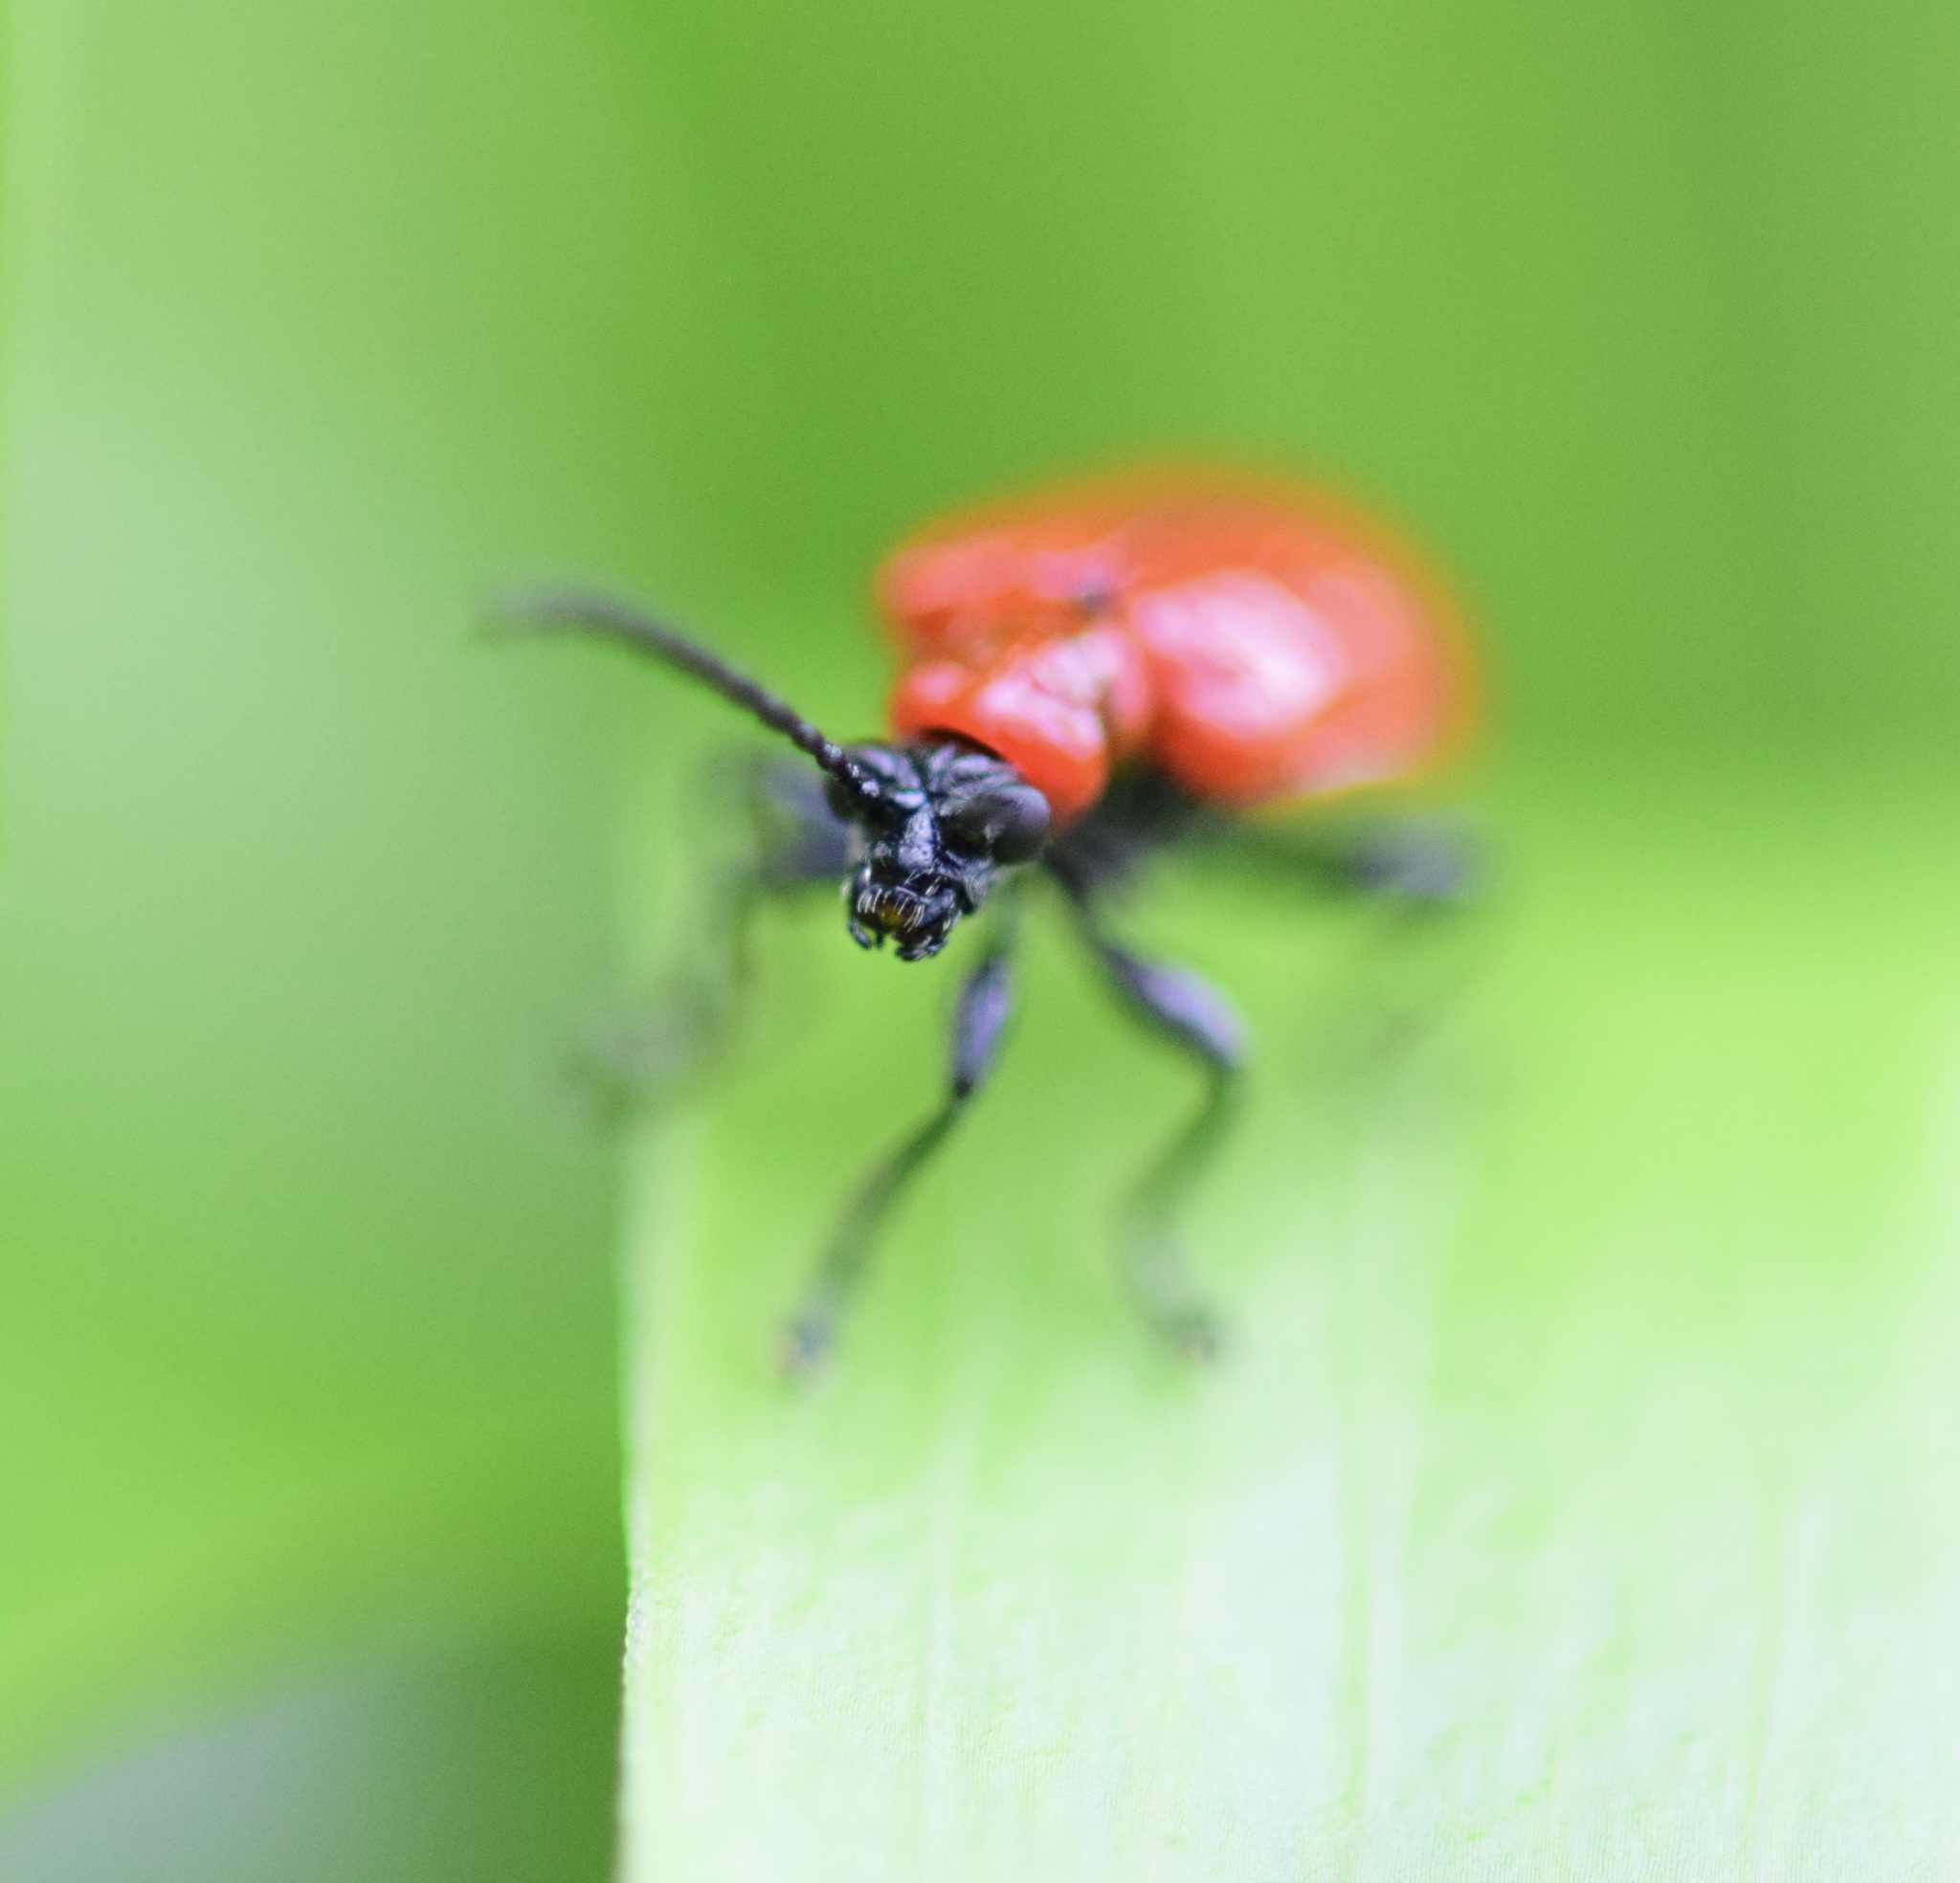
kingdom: Animalia
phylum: Arthropoda
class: Insecta
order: Coleoptera
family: Chrysomelidae
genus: Lilioceris
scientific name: Lilioceris lilii
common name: Lily beetle
